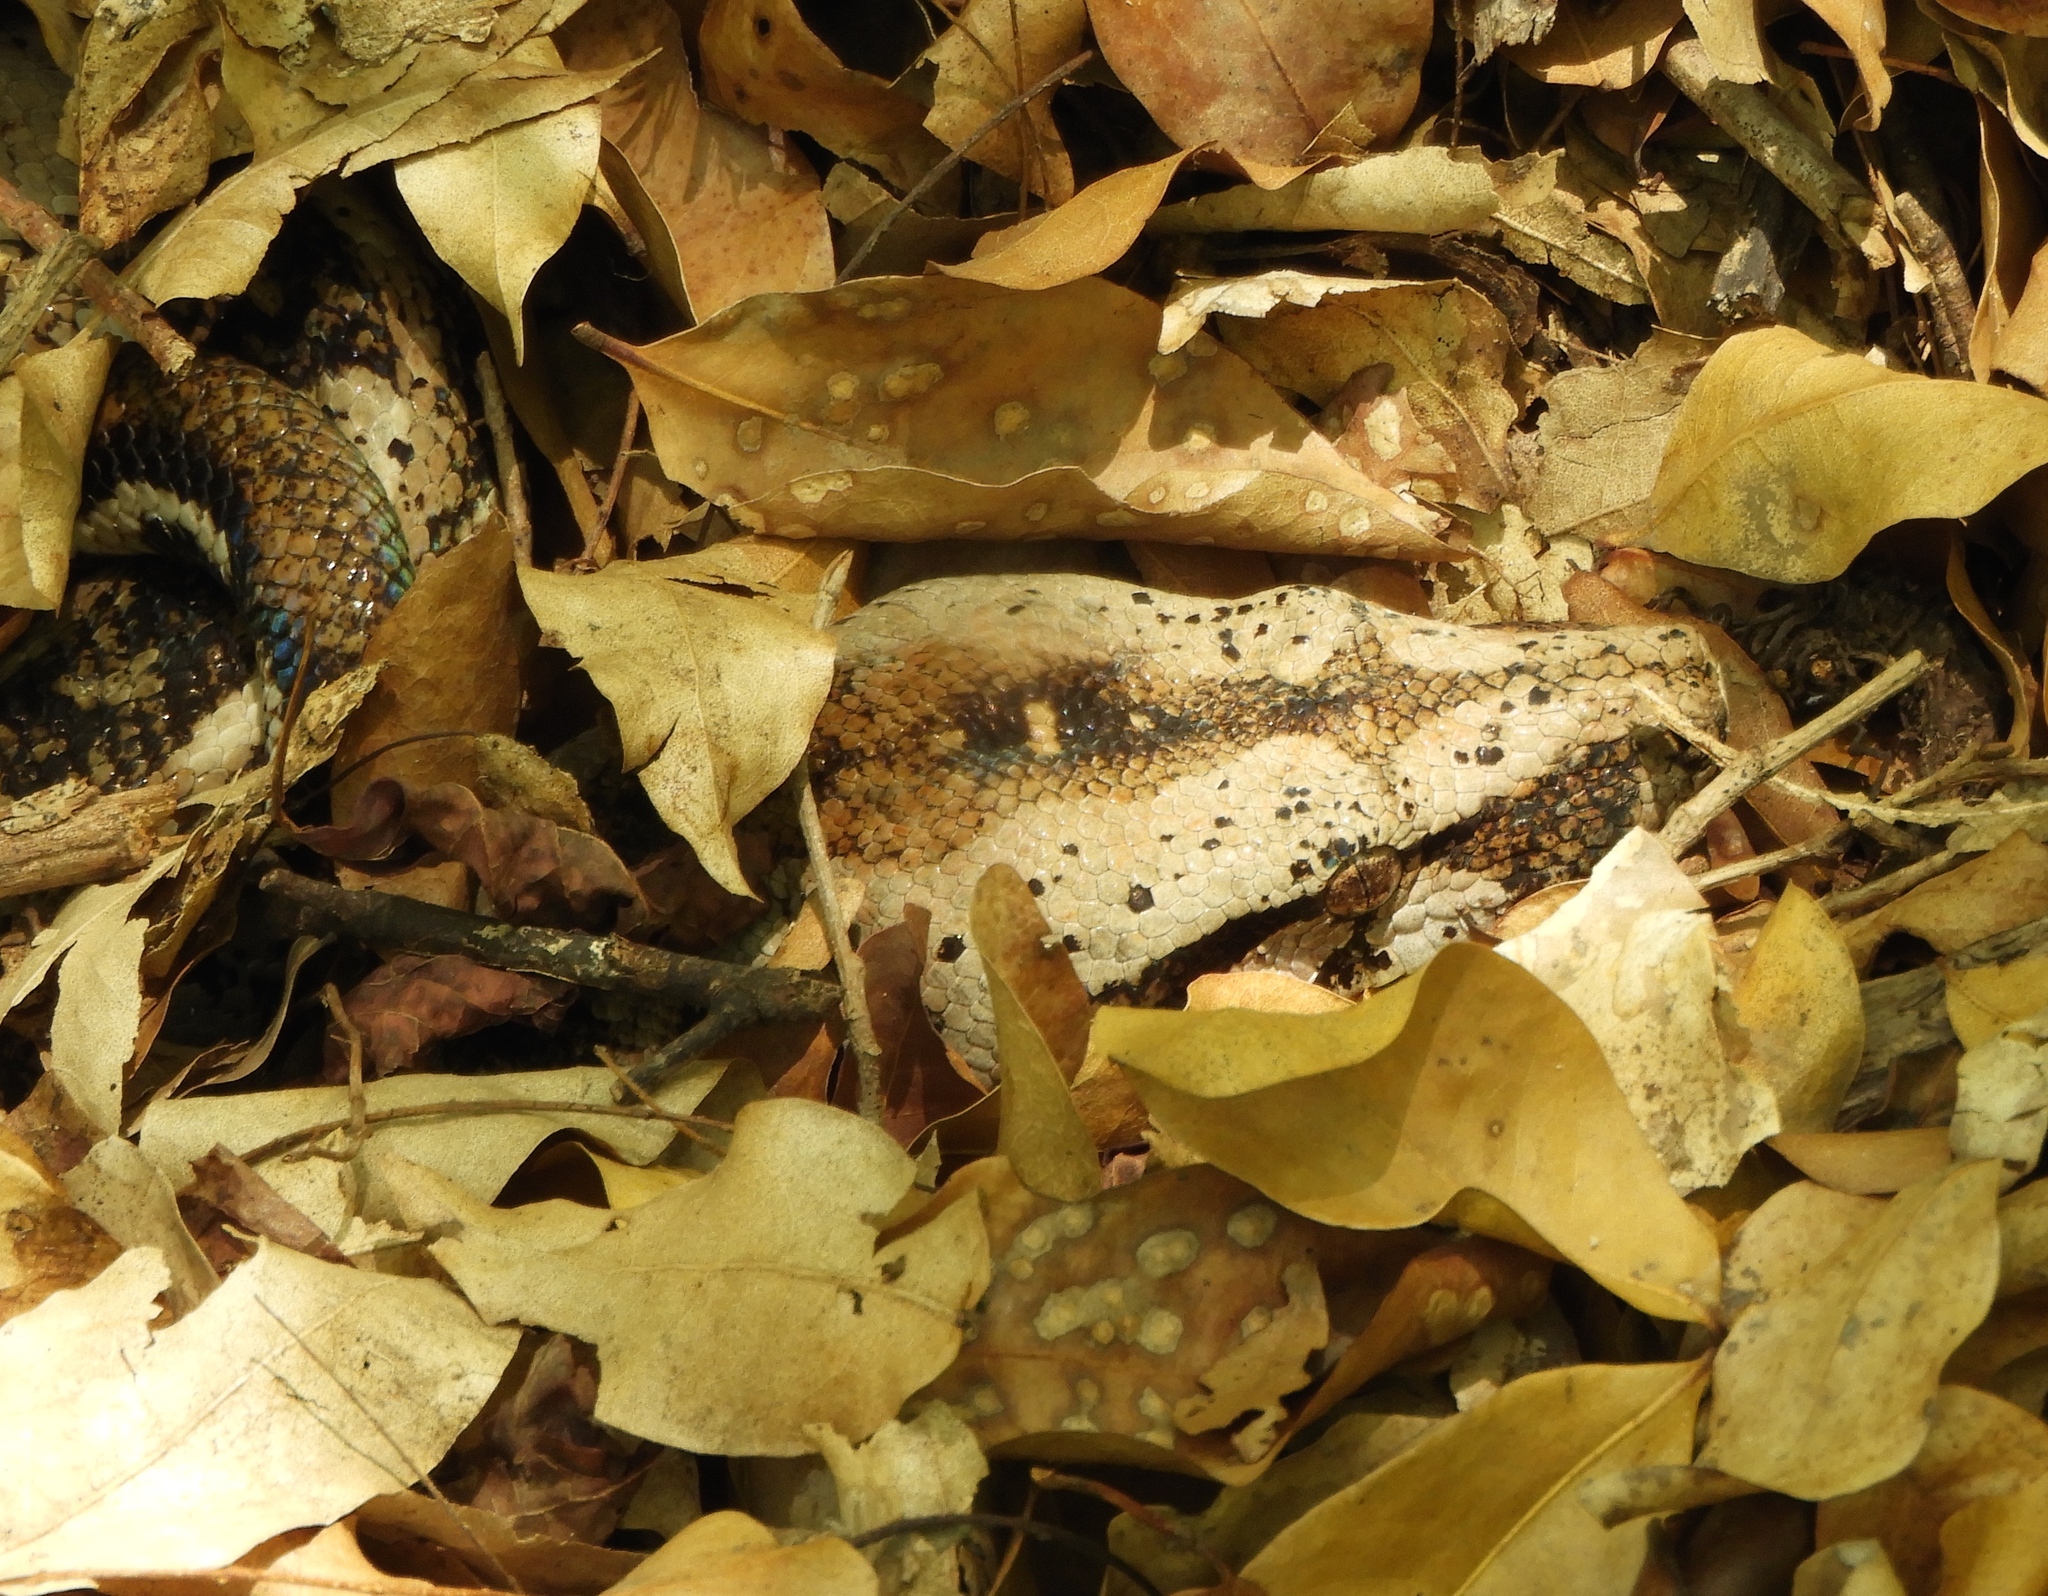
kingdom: Animalia
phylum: Chordata
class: Squamata
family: Boidae
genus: Boa
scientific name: Boa
